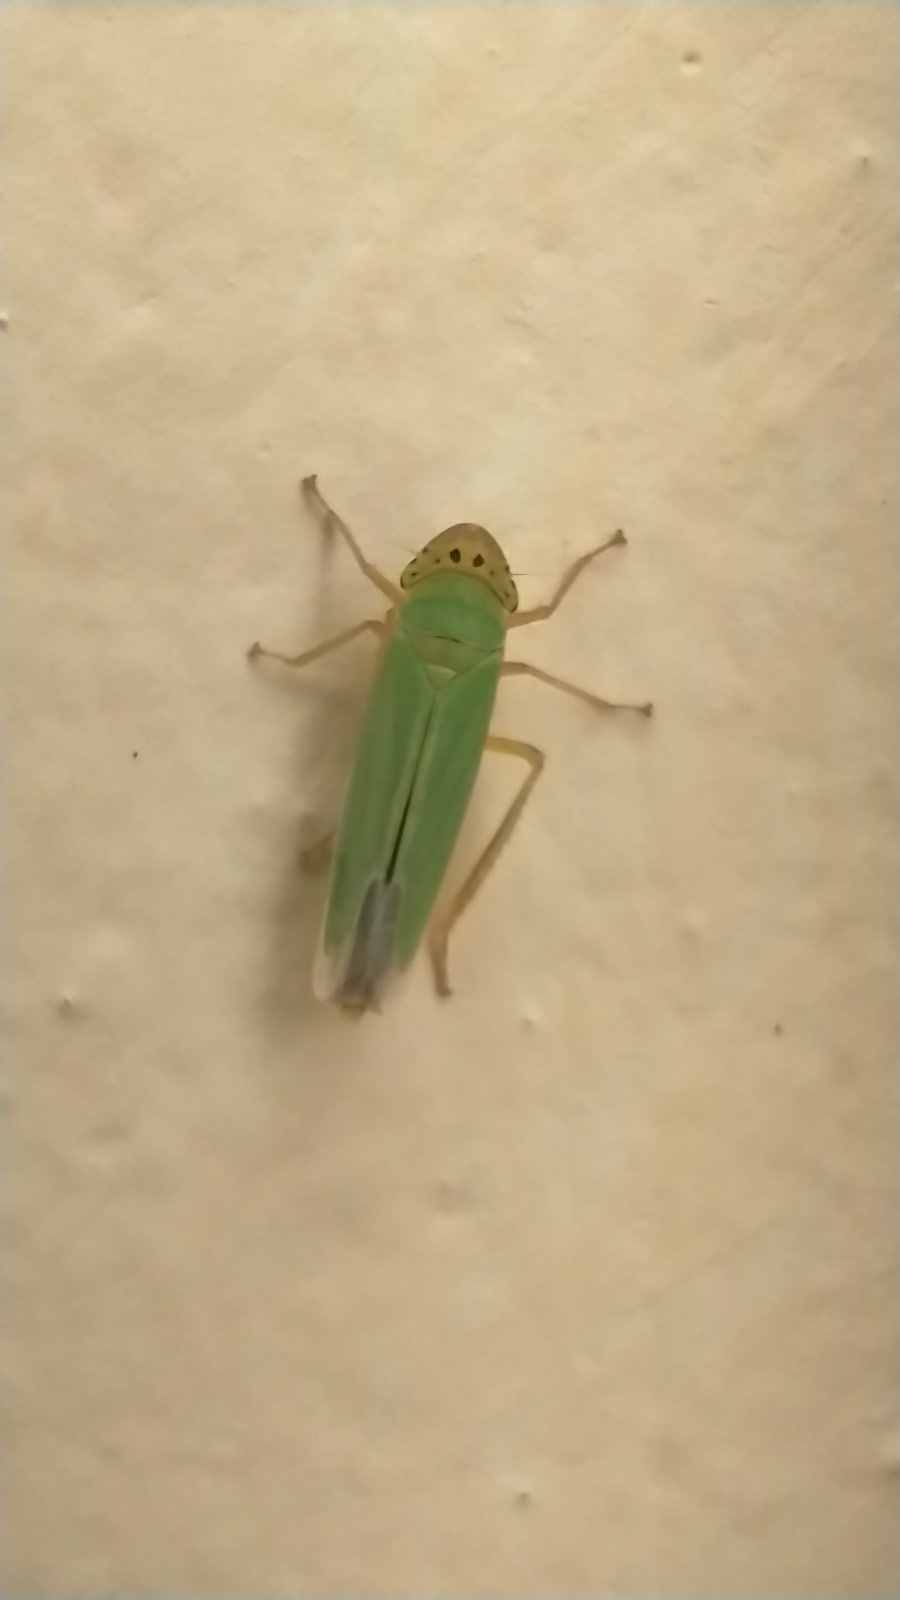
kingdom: Animalia
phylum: Arthropoda
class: Insecta
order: Hemiptera
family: Cicadellidae
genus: Cicadella
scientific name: Cicadella viridis
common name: Leafhopper
